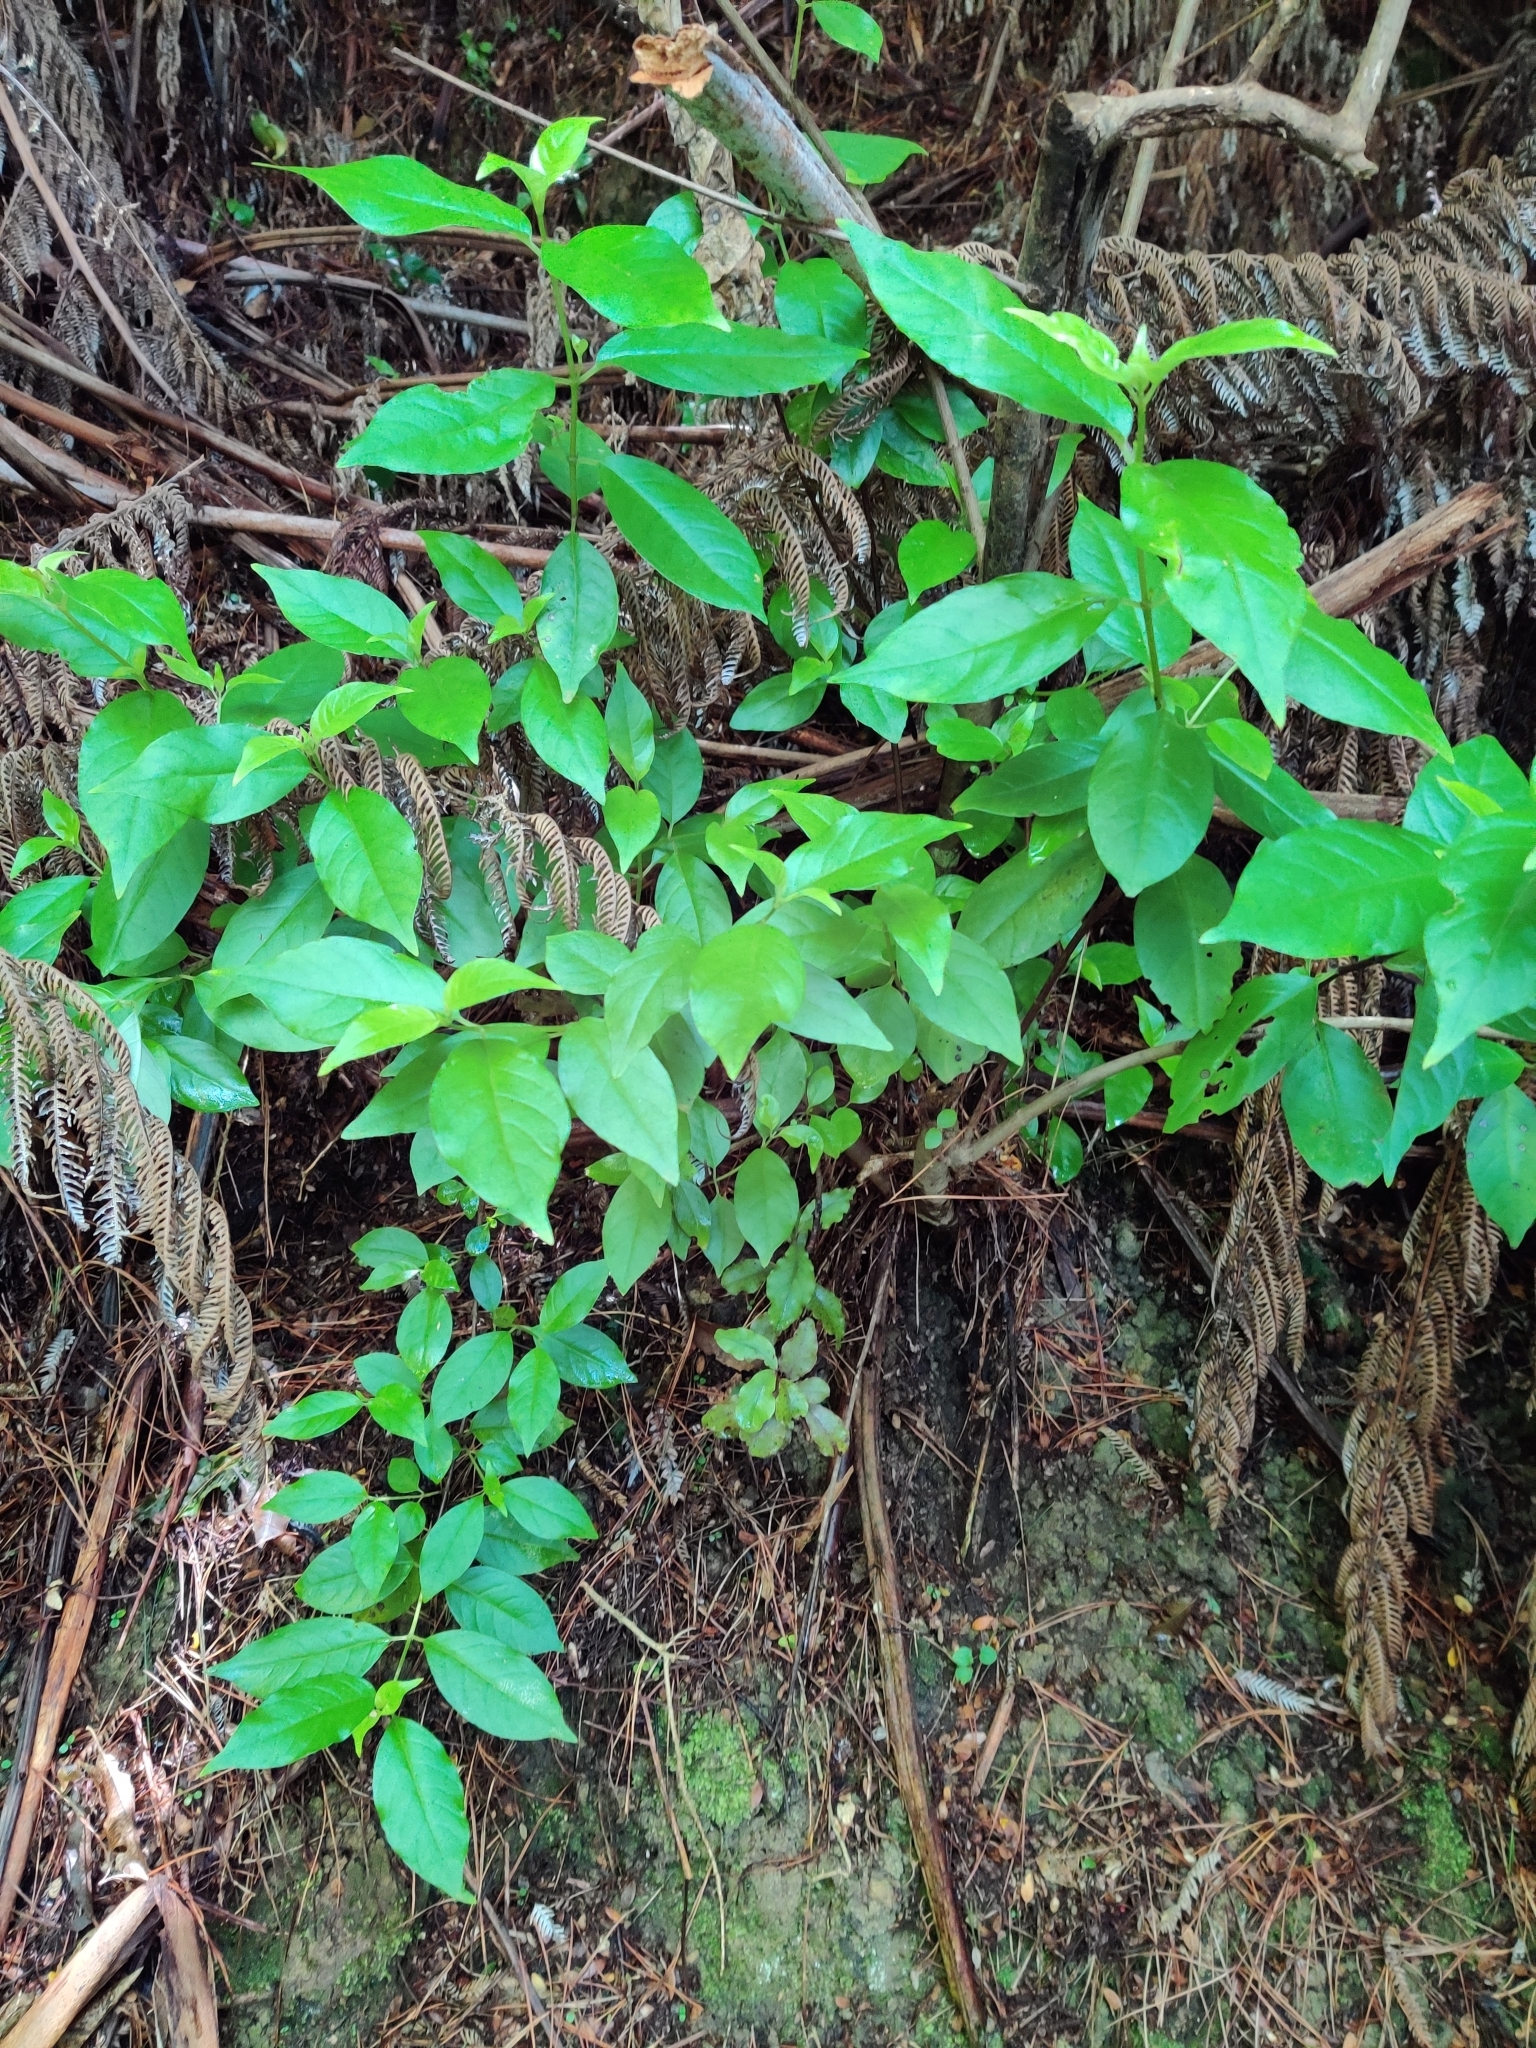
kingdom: Plantae
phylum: Tracheophyta
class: Magnoliopsida
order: Gentianales
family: Loganiaceae
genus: Geniostoma
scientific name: Geniostoma ligustrifolium
